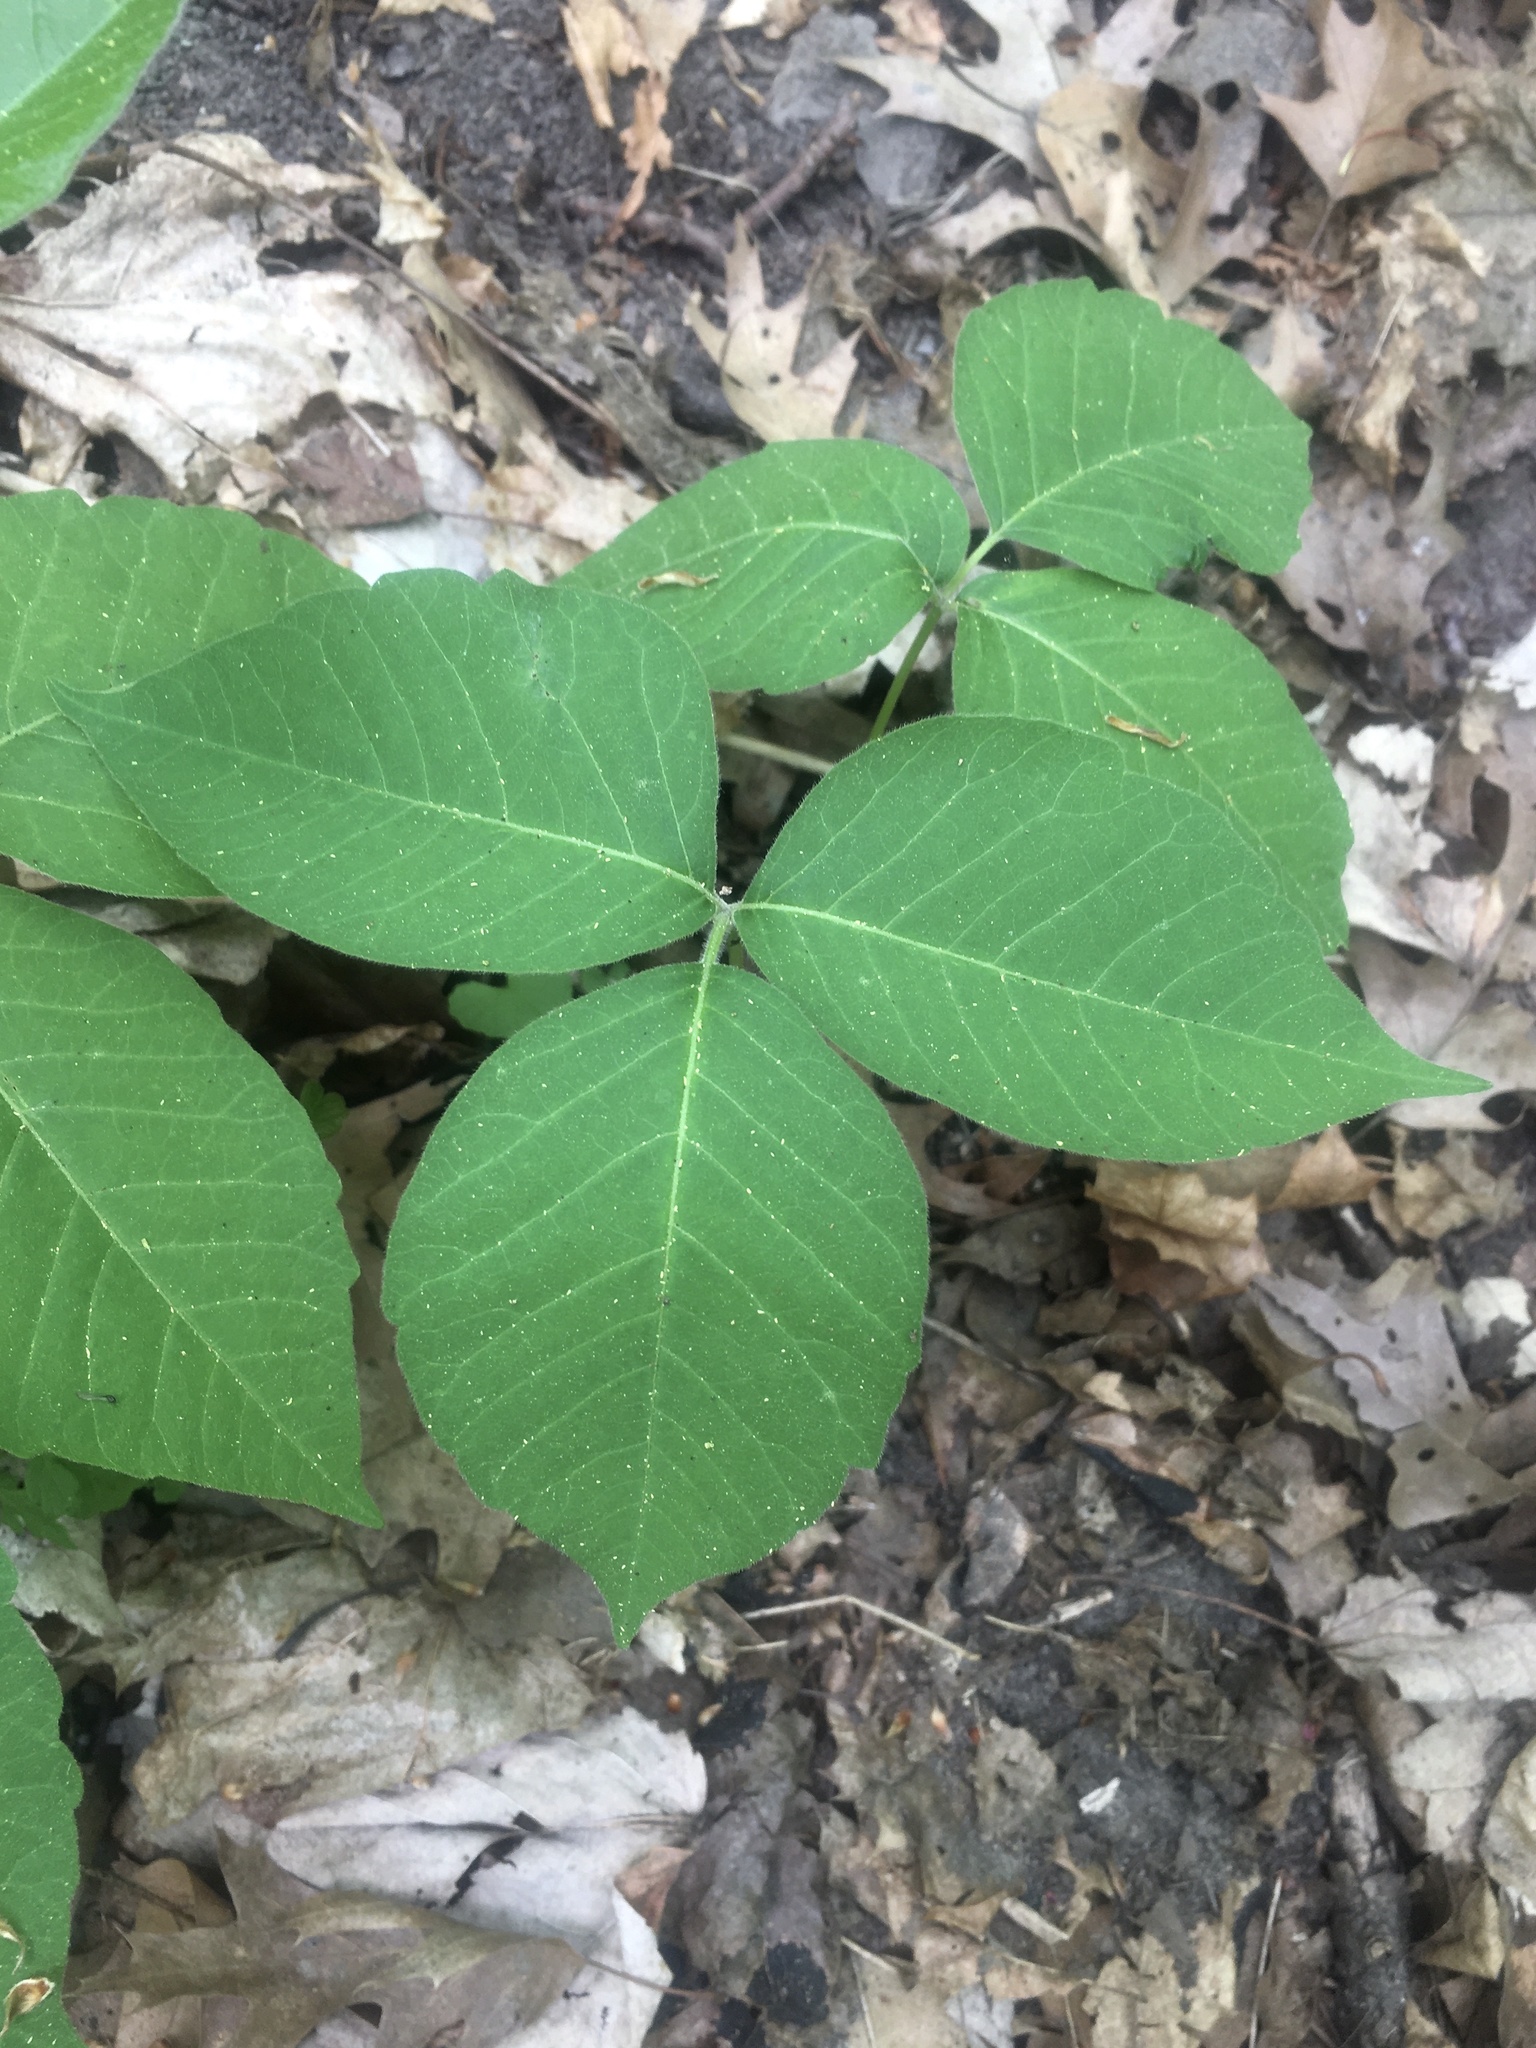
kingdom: Plantae
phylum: Tracheophyta
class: Magnoliopsida
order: Sapindales
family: Anacardiaceae
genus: Toxicodendron
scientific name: Toxicodendron rydbergii
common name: Rydberg's poison-ivy
